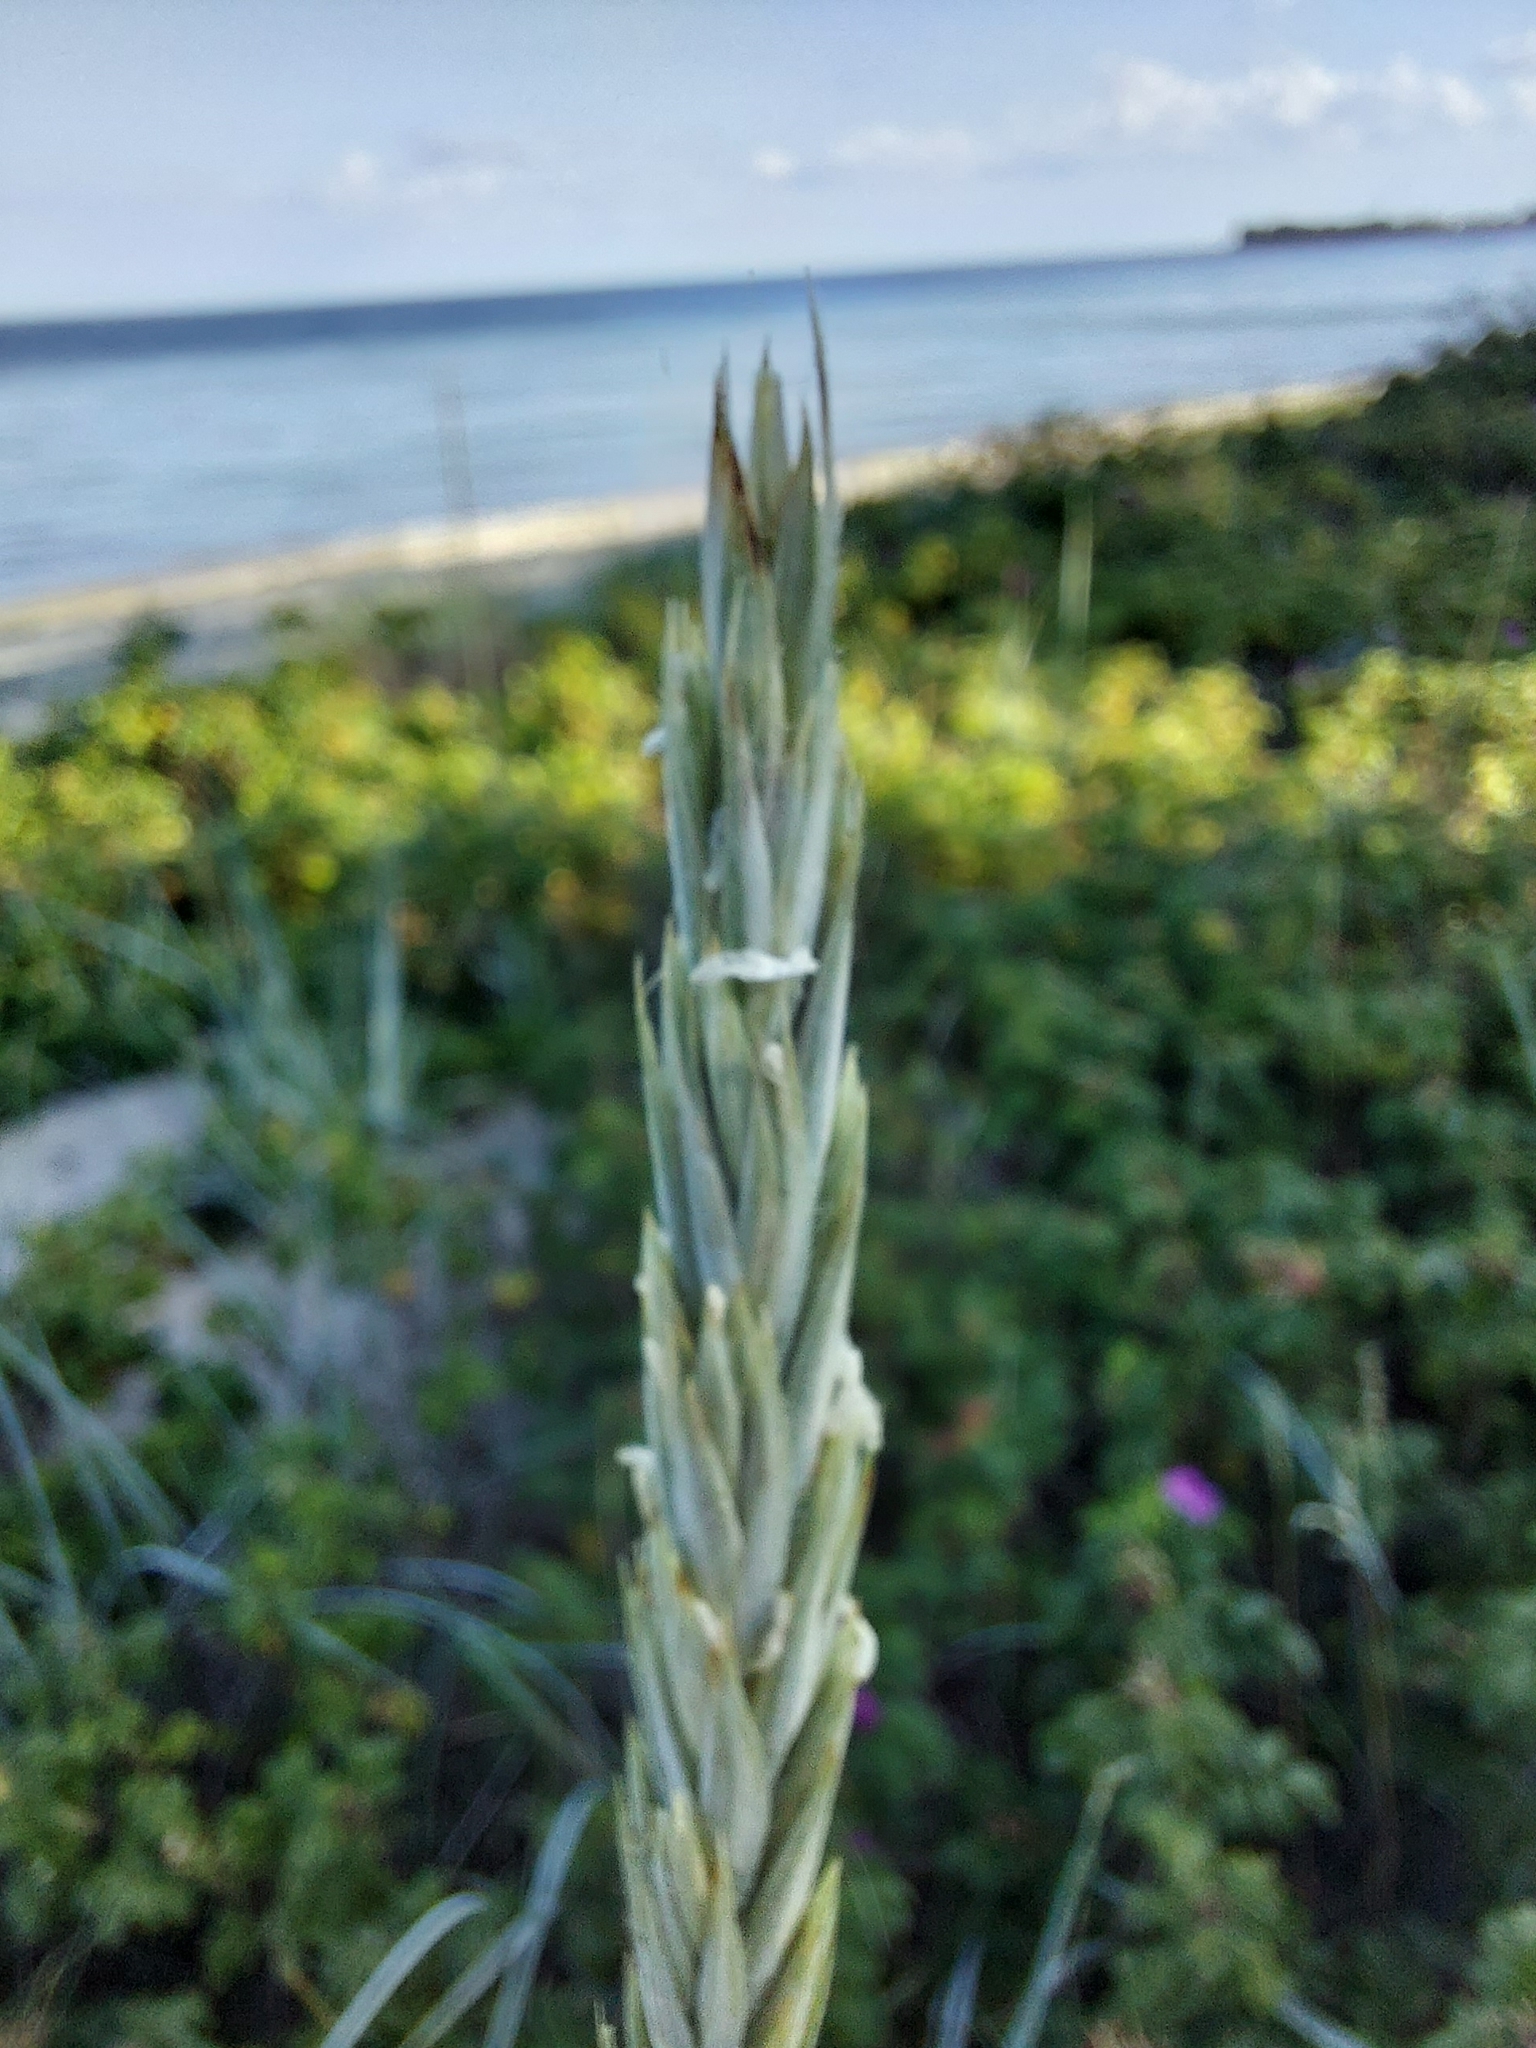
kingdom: Plantae
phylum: Tracheophyta
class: Liliopsida
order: Poales
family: Poaceae
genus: Leymus
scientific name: Leymus arenarius
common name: Lyme-grass
